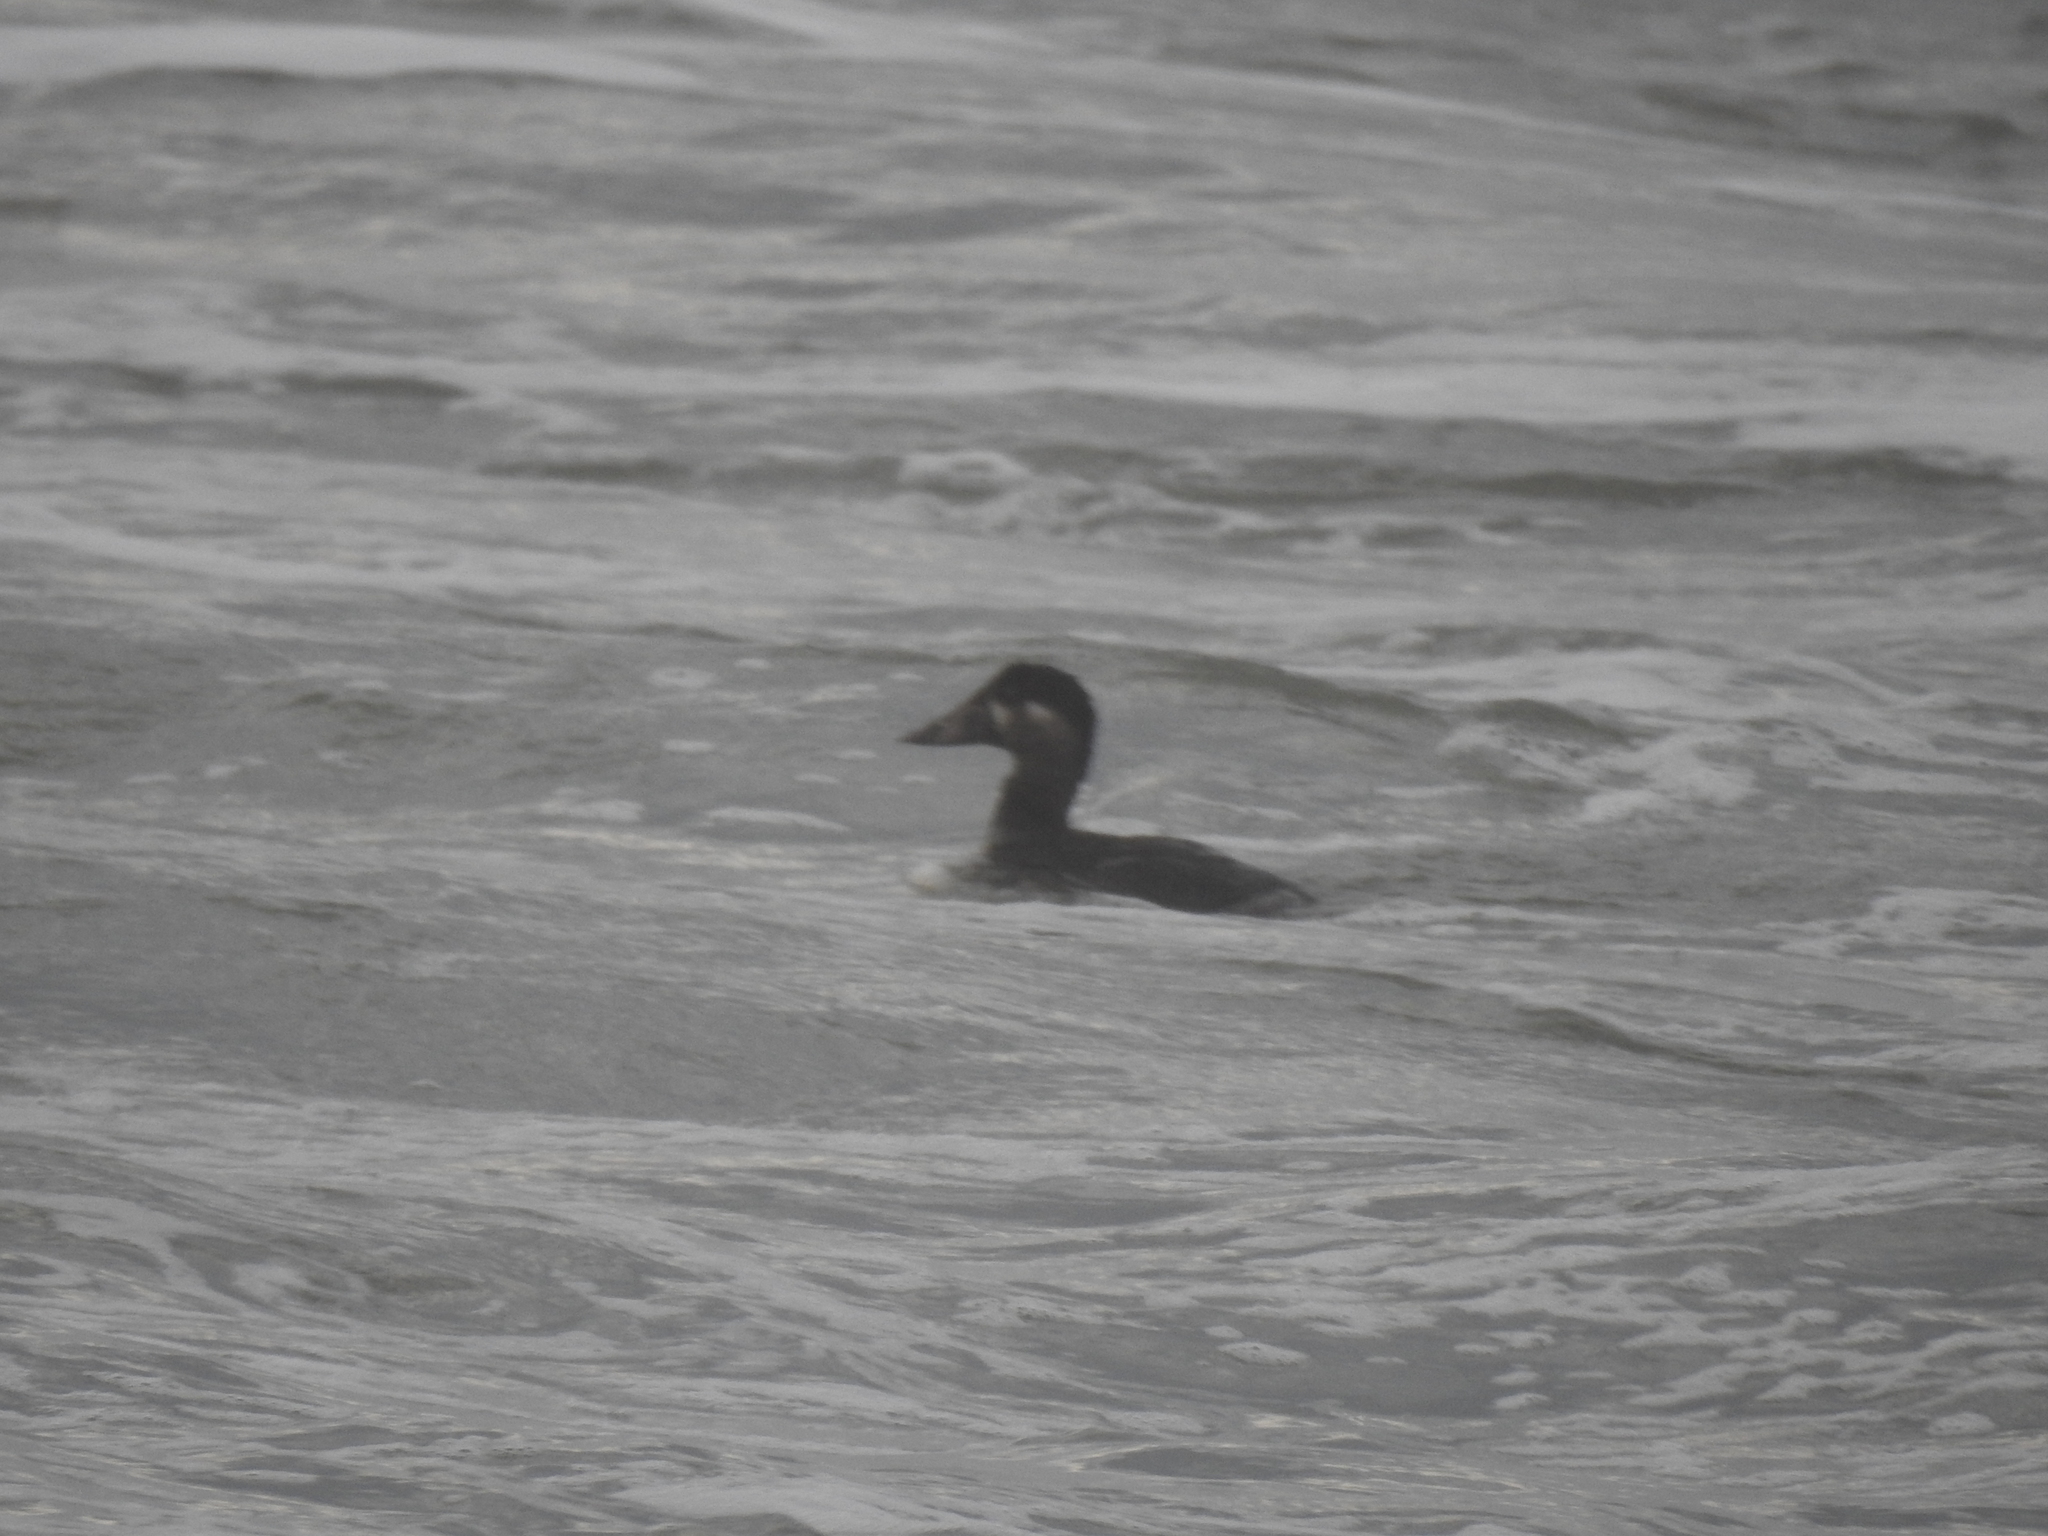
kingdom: Animalia
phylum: Chordata
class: Aves
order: Anseriformes
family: Anatidae
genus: Melanitta
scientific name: Melanitta perspicillata
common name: Surf scoter
